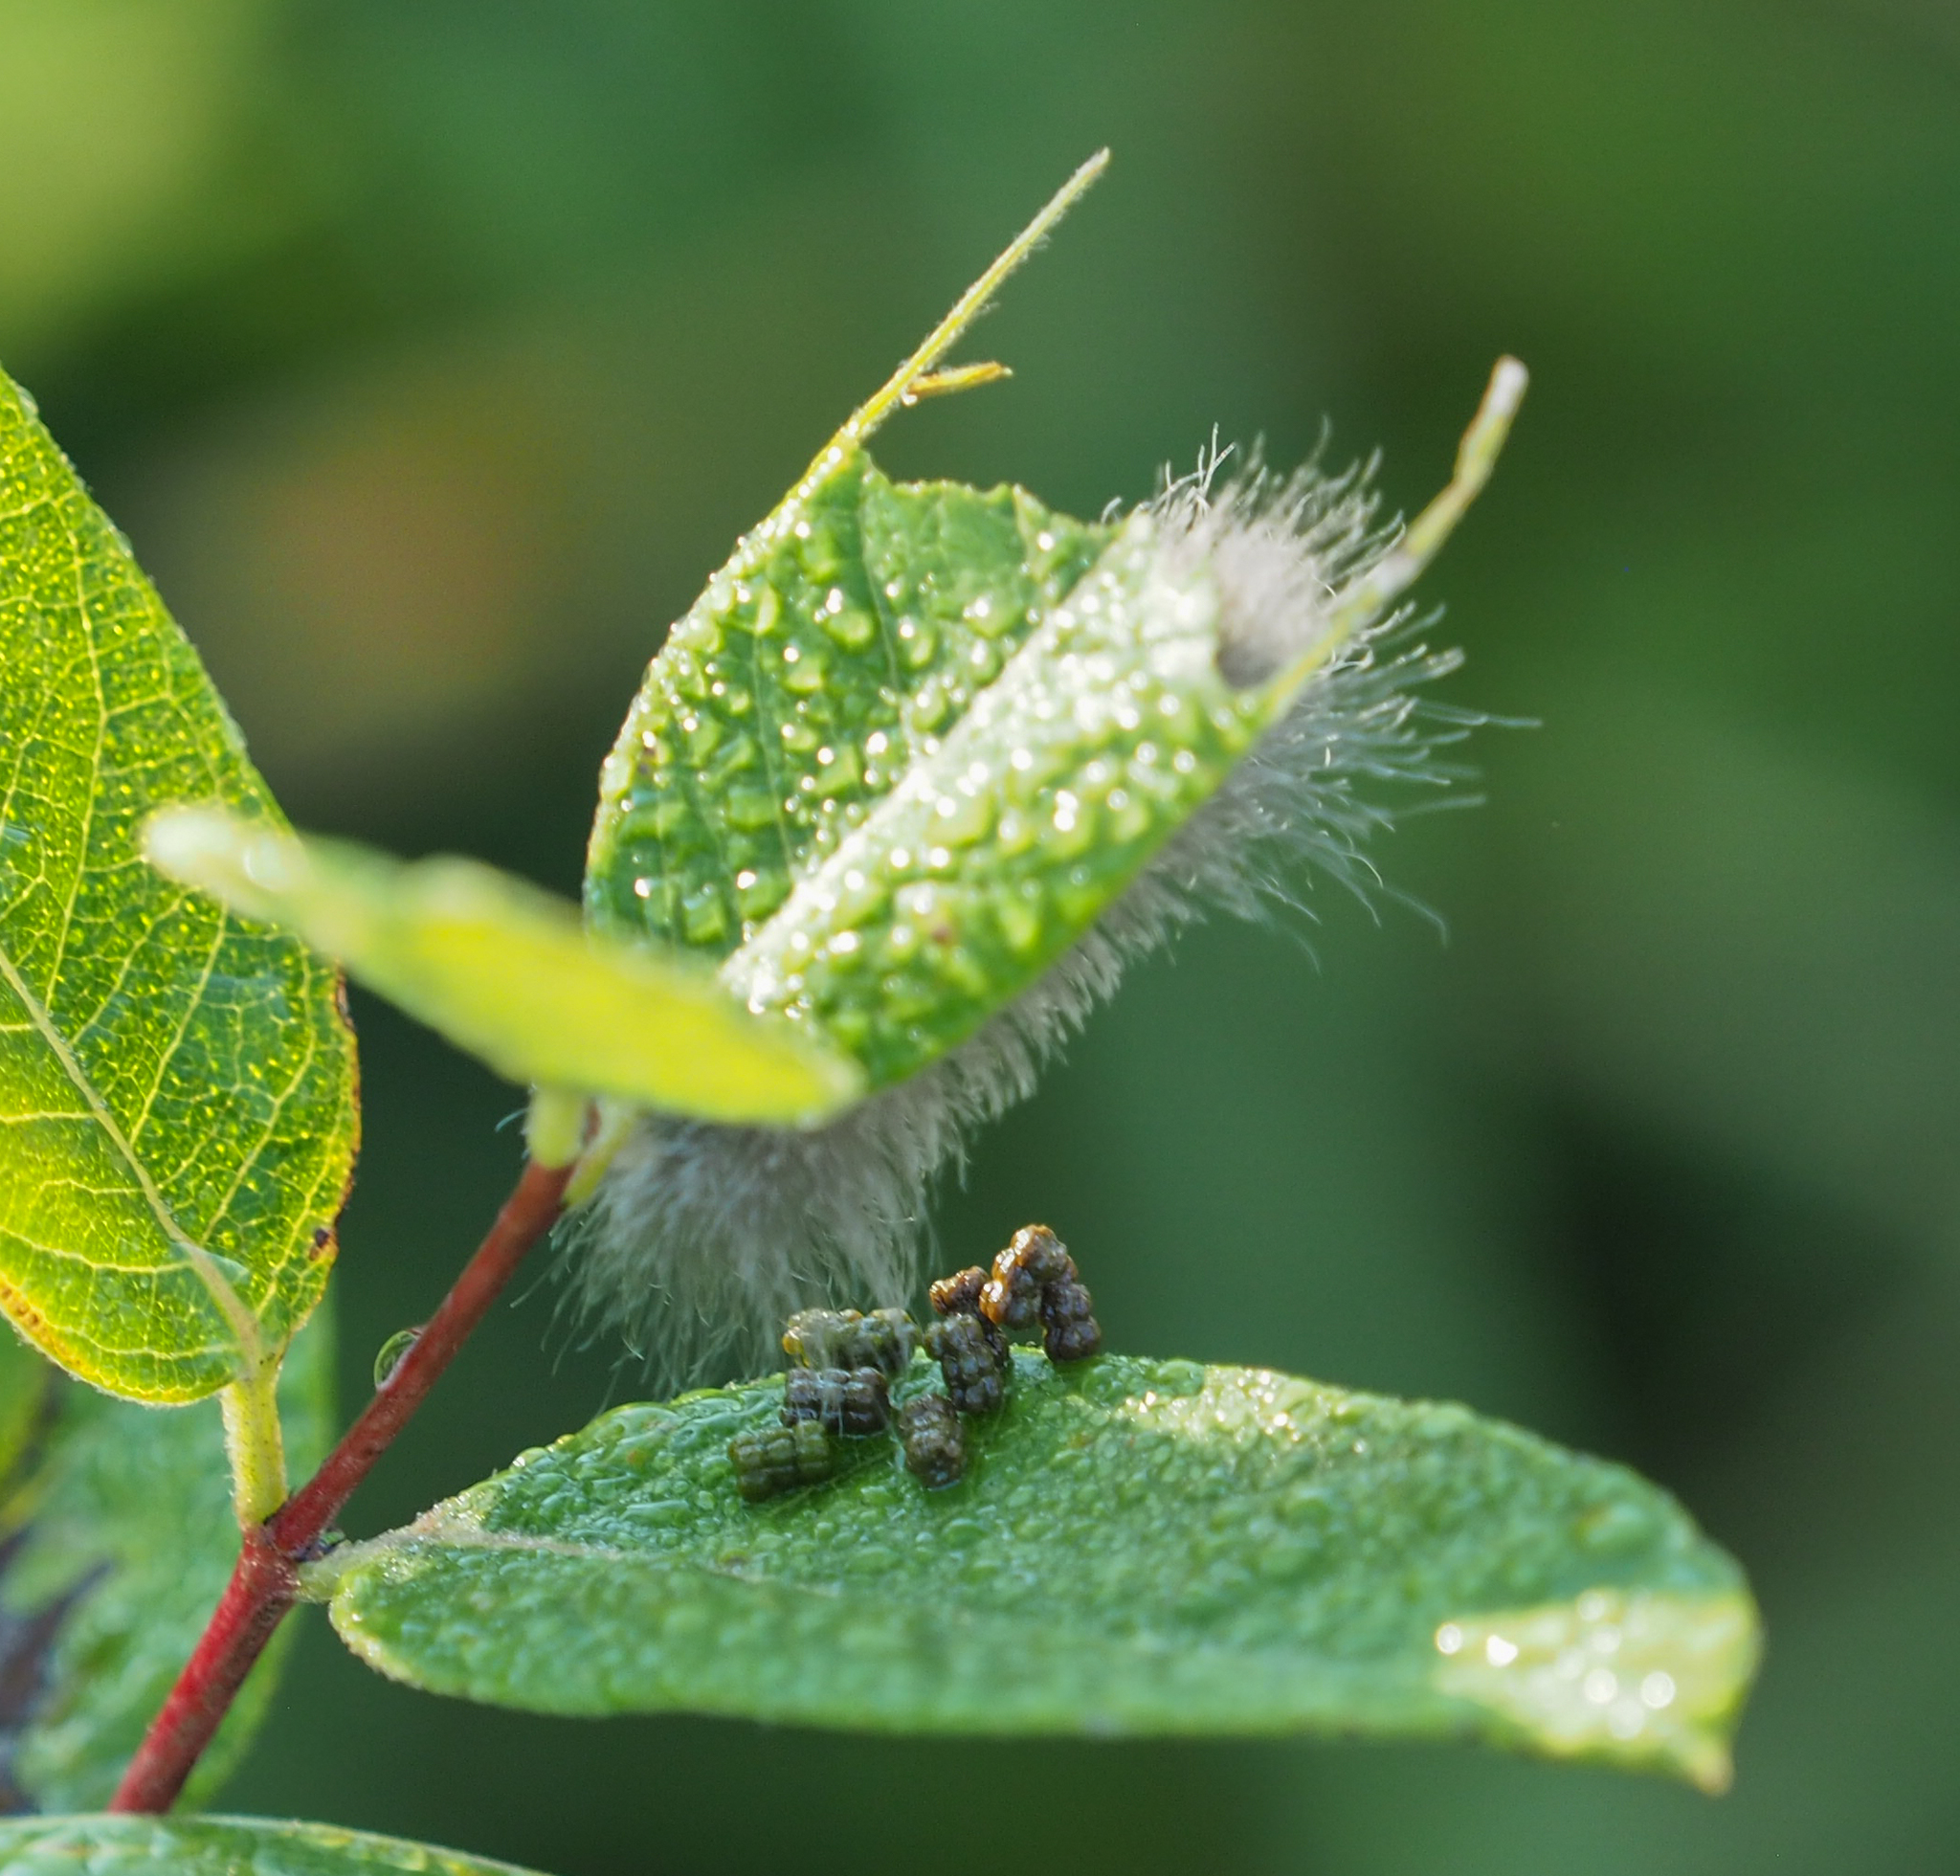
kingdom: Animalia
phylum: Arthropoda
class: Insecta
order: Lepidoptera
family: Erebidae
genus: Cycnia
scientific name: Cycnia tenera
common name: Delicate cycnia moth
